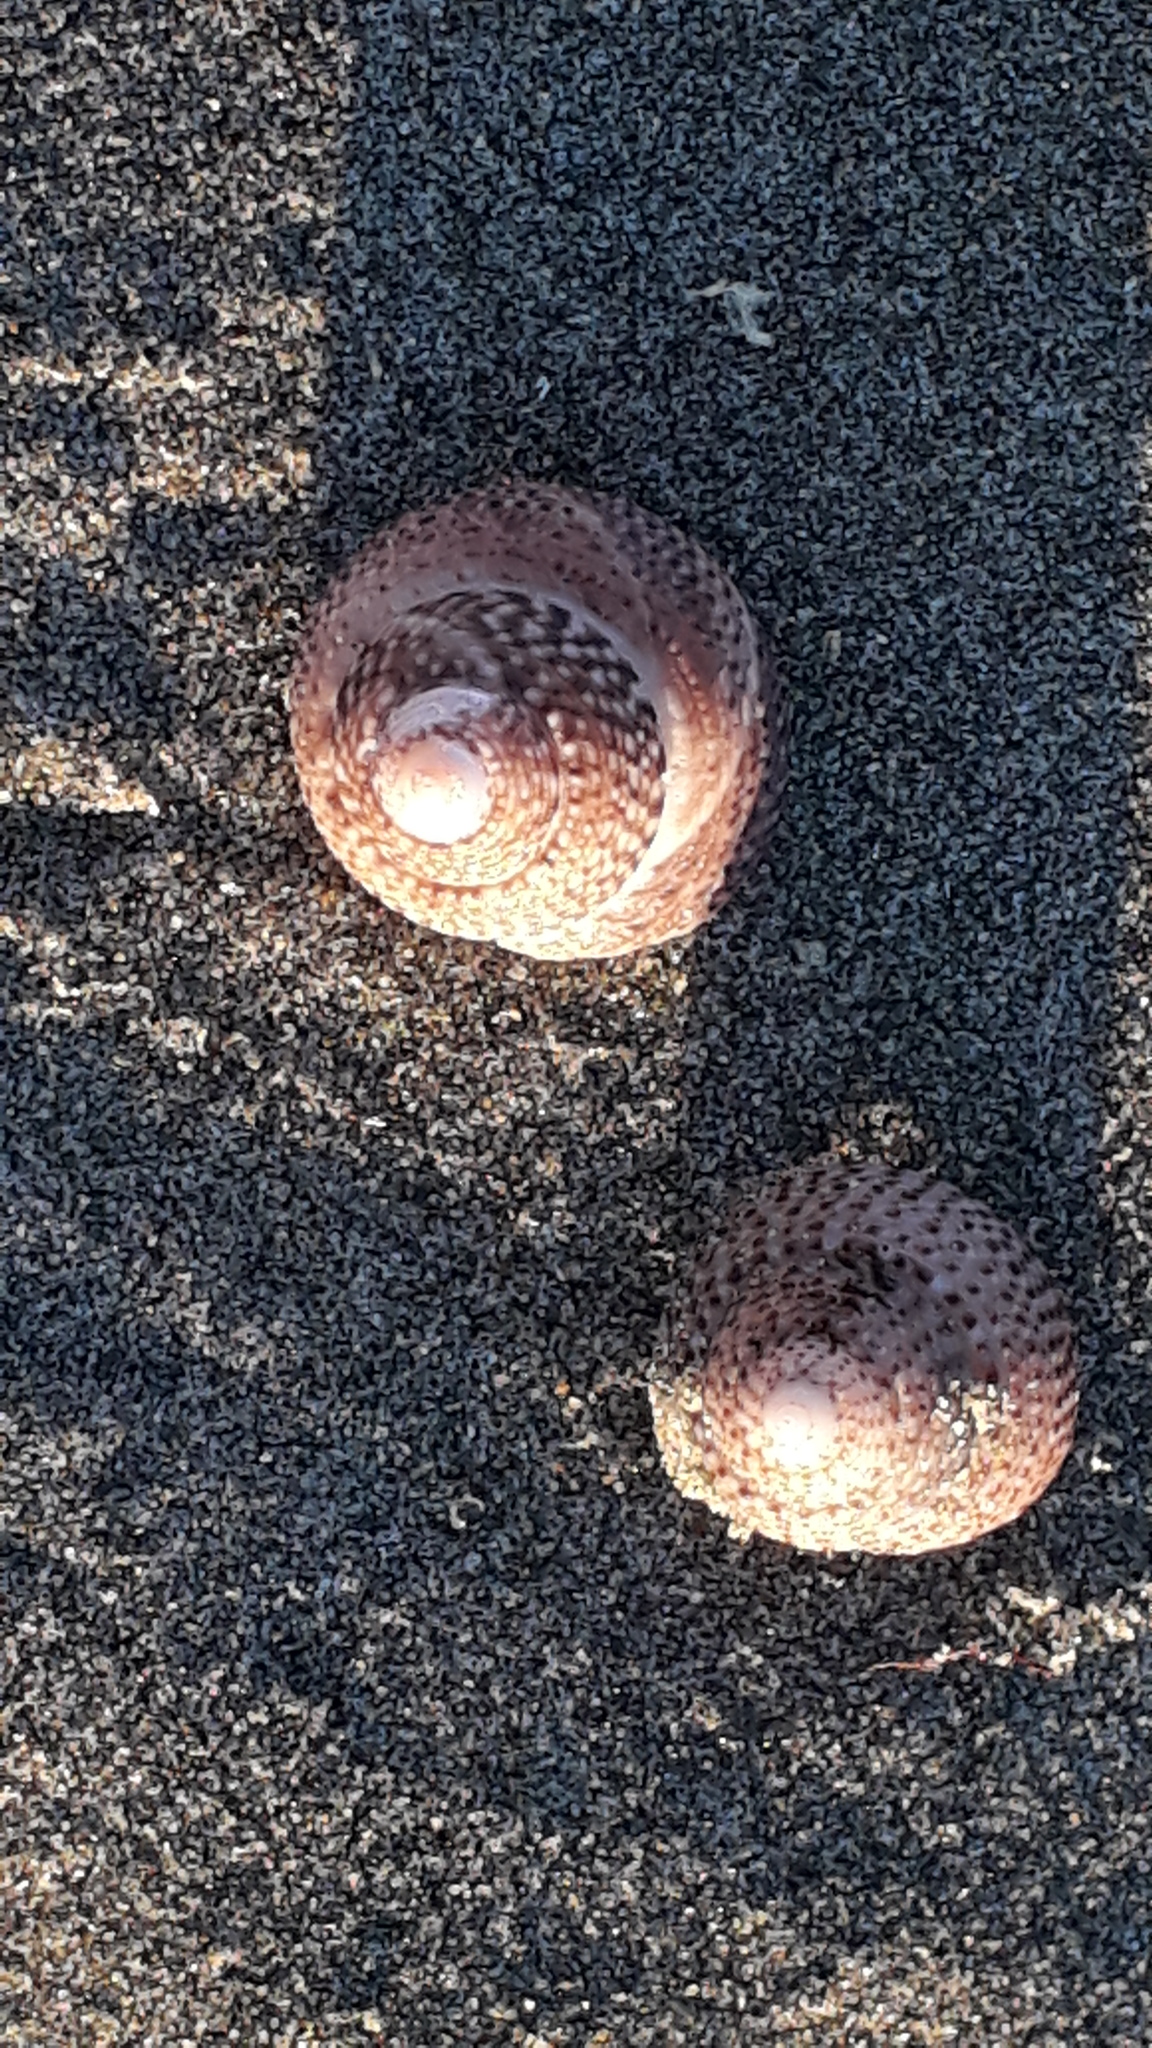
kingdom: Animalia
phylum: Mollusca
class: Gastropoda
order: Trochida
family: Trochidae
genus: Coelotrochus
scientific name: Coelotrochus tiaratus
